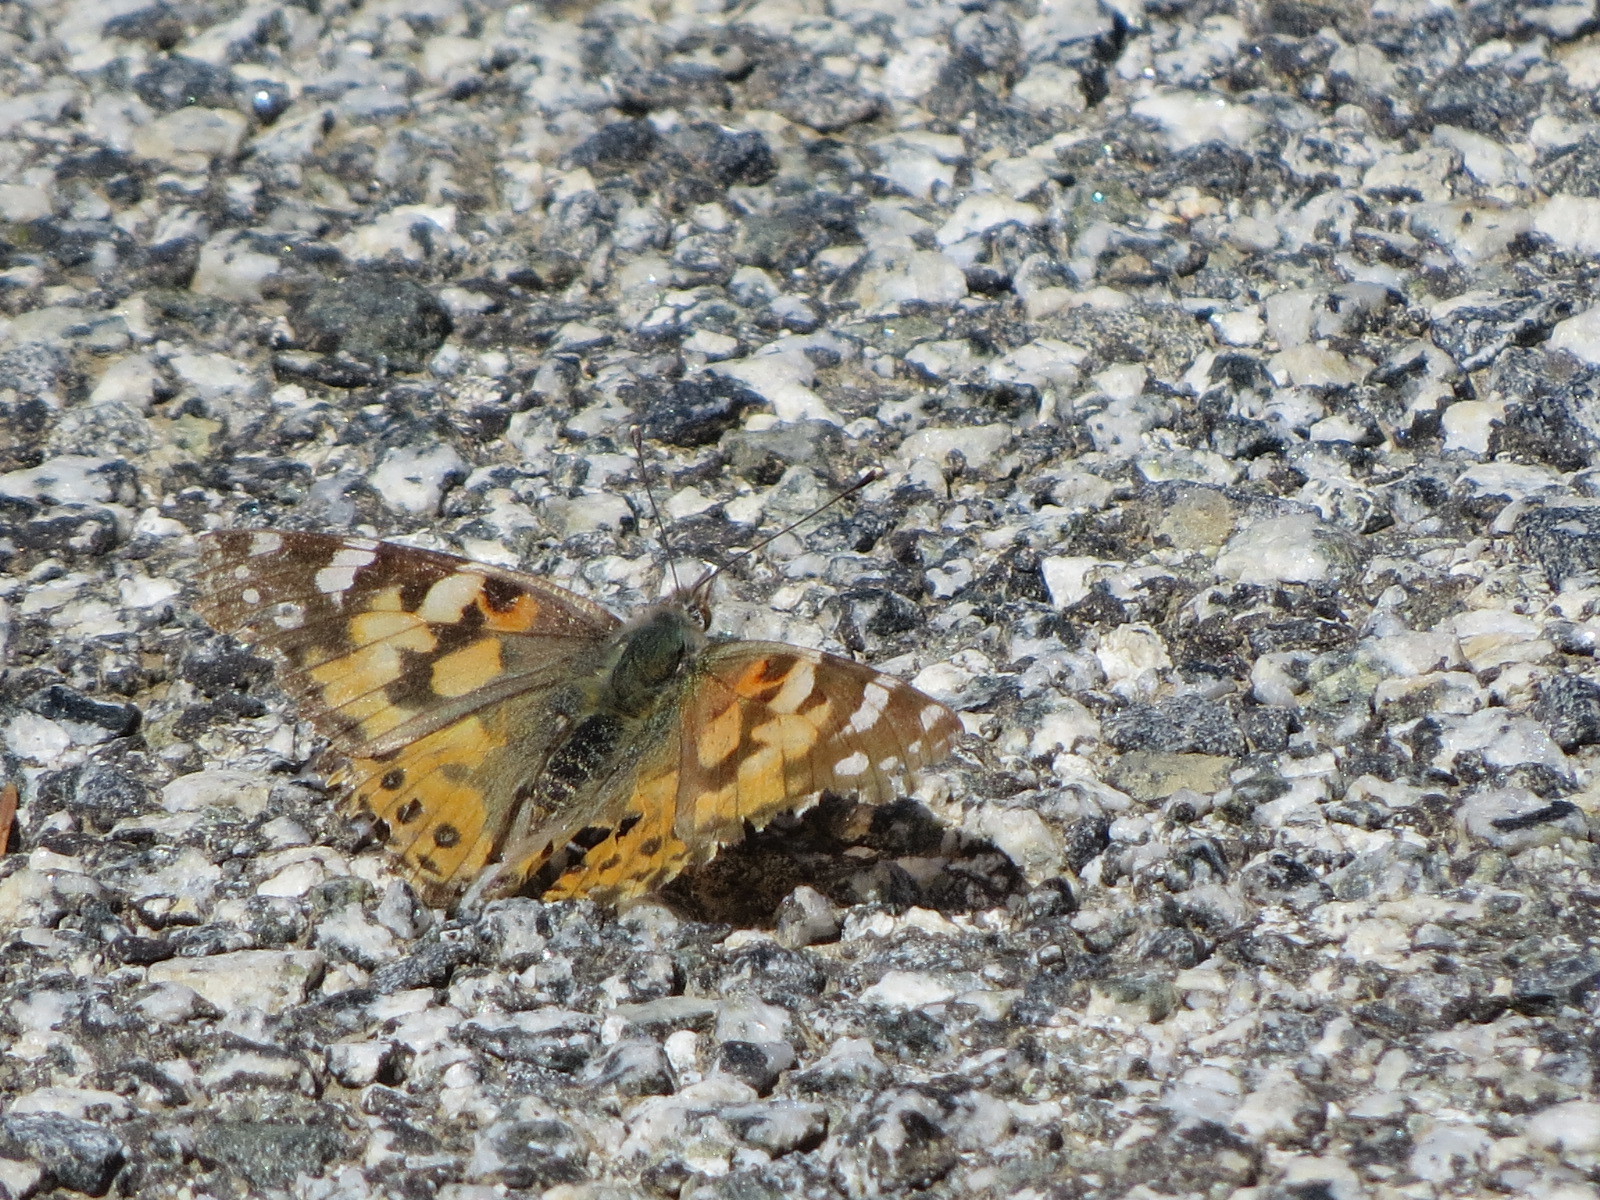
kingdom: Animalia
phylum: Arthropoda
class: Insecta
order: Lepidoptera
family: Nymphalidae
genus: Vanessa
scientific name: Vanessa cardui
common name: Painted lady
